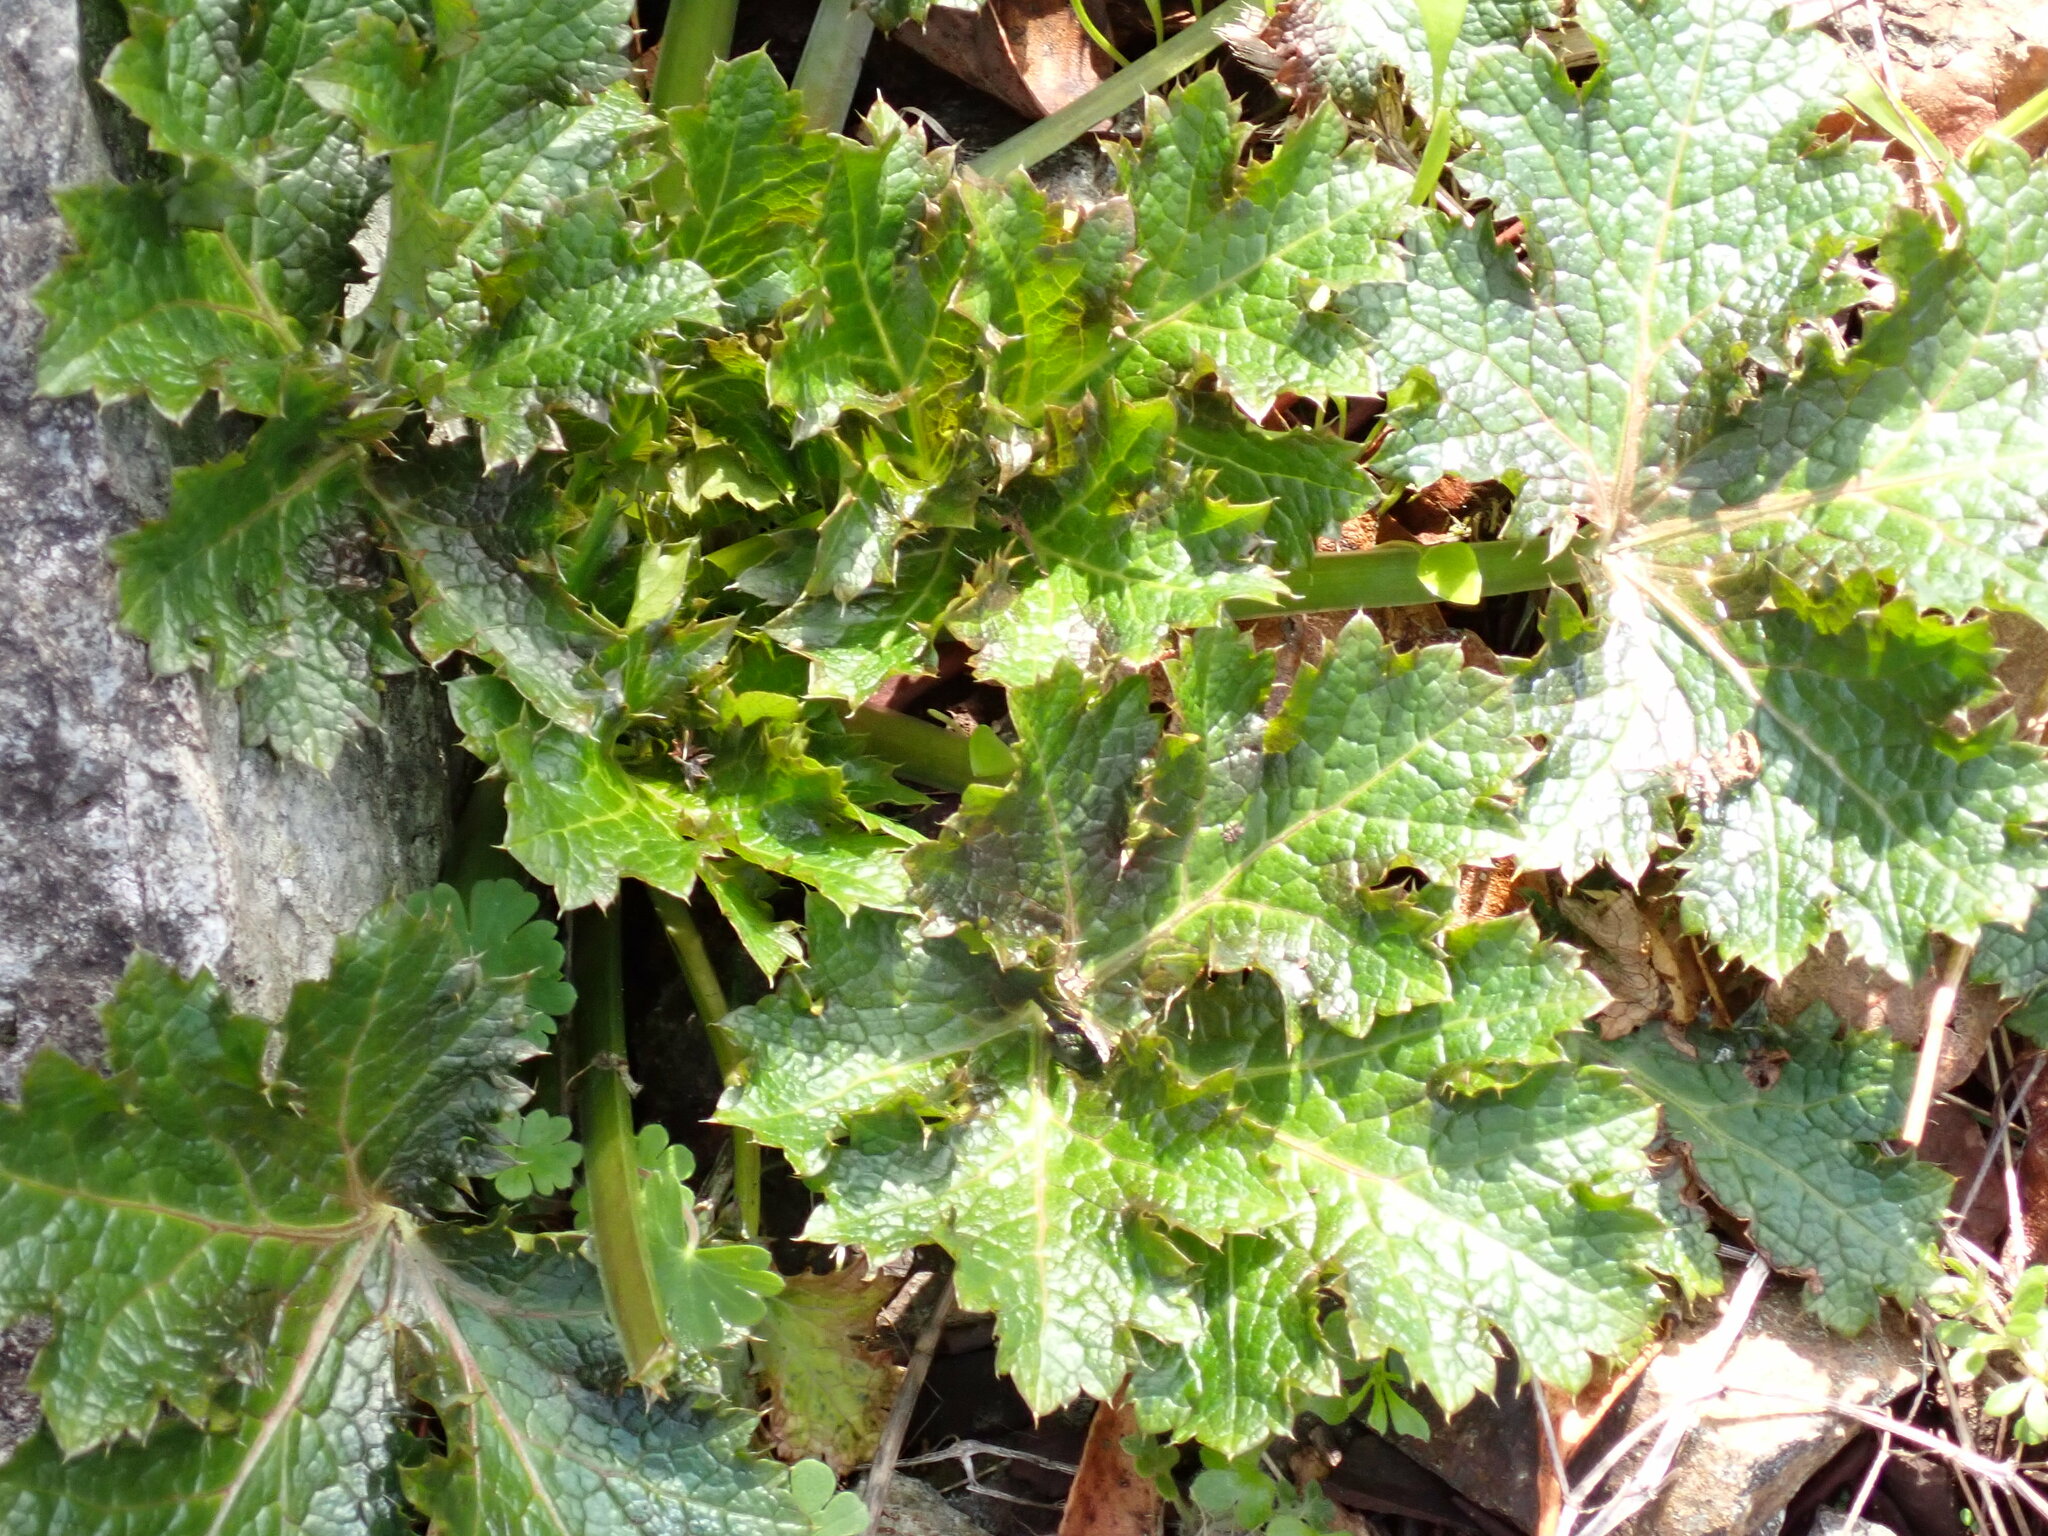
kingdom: Plantae
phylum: Tracheophyta
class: Magnoliopsida
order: Apiales
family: Apiaceae
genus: Sanicula
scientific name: Sanicula crassicaulis
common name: Western snakeroot
